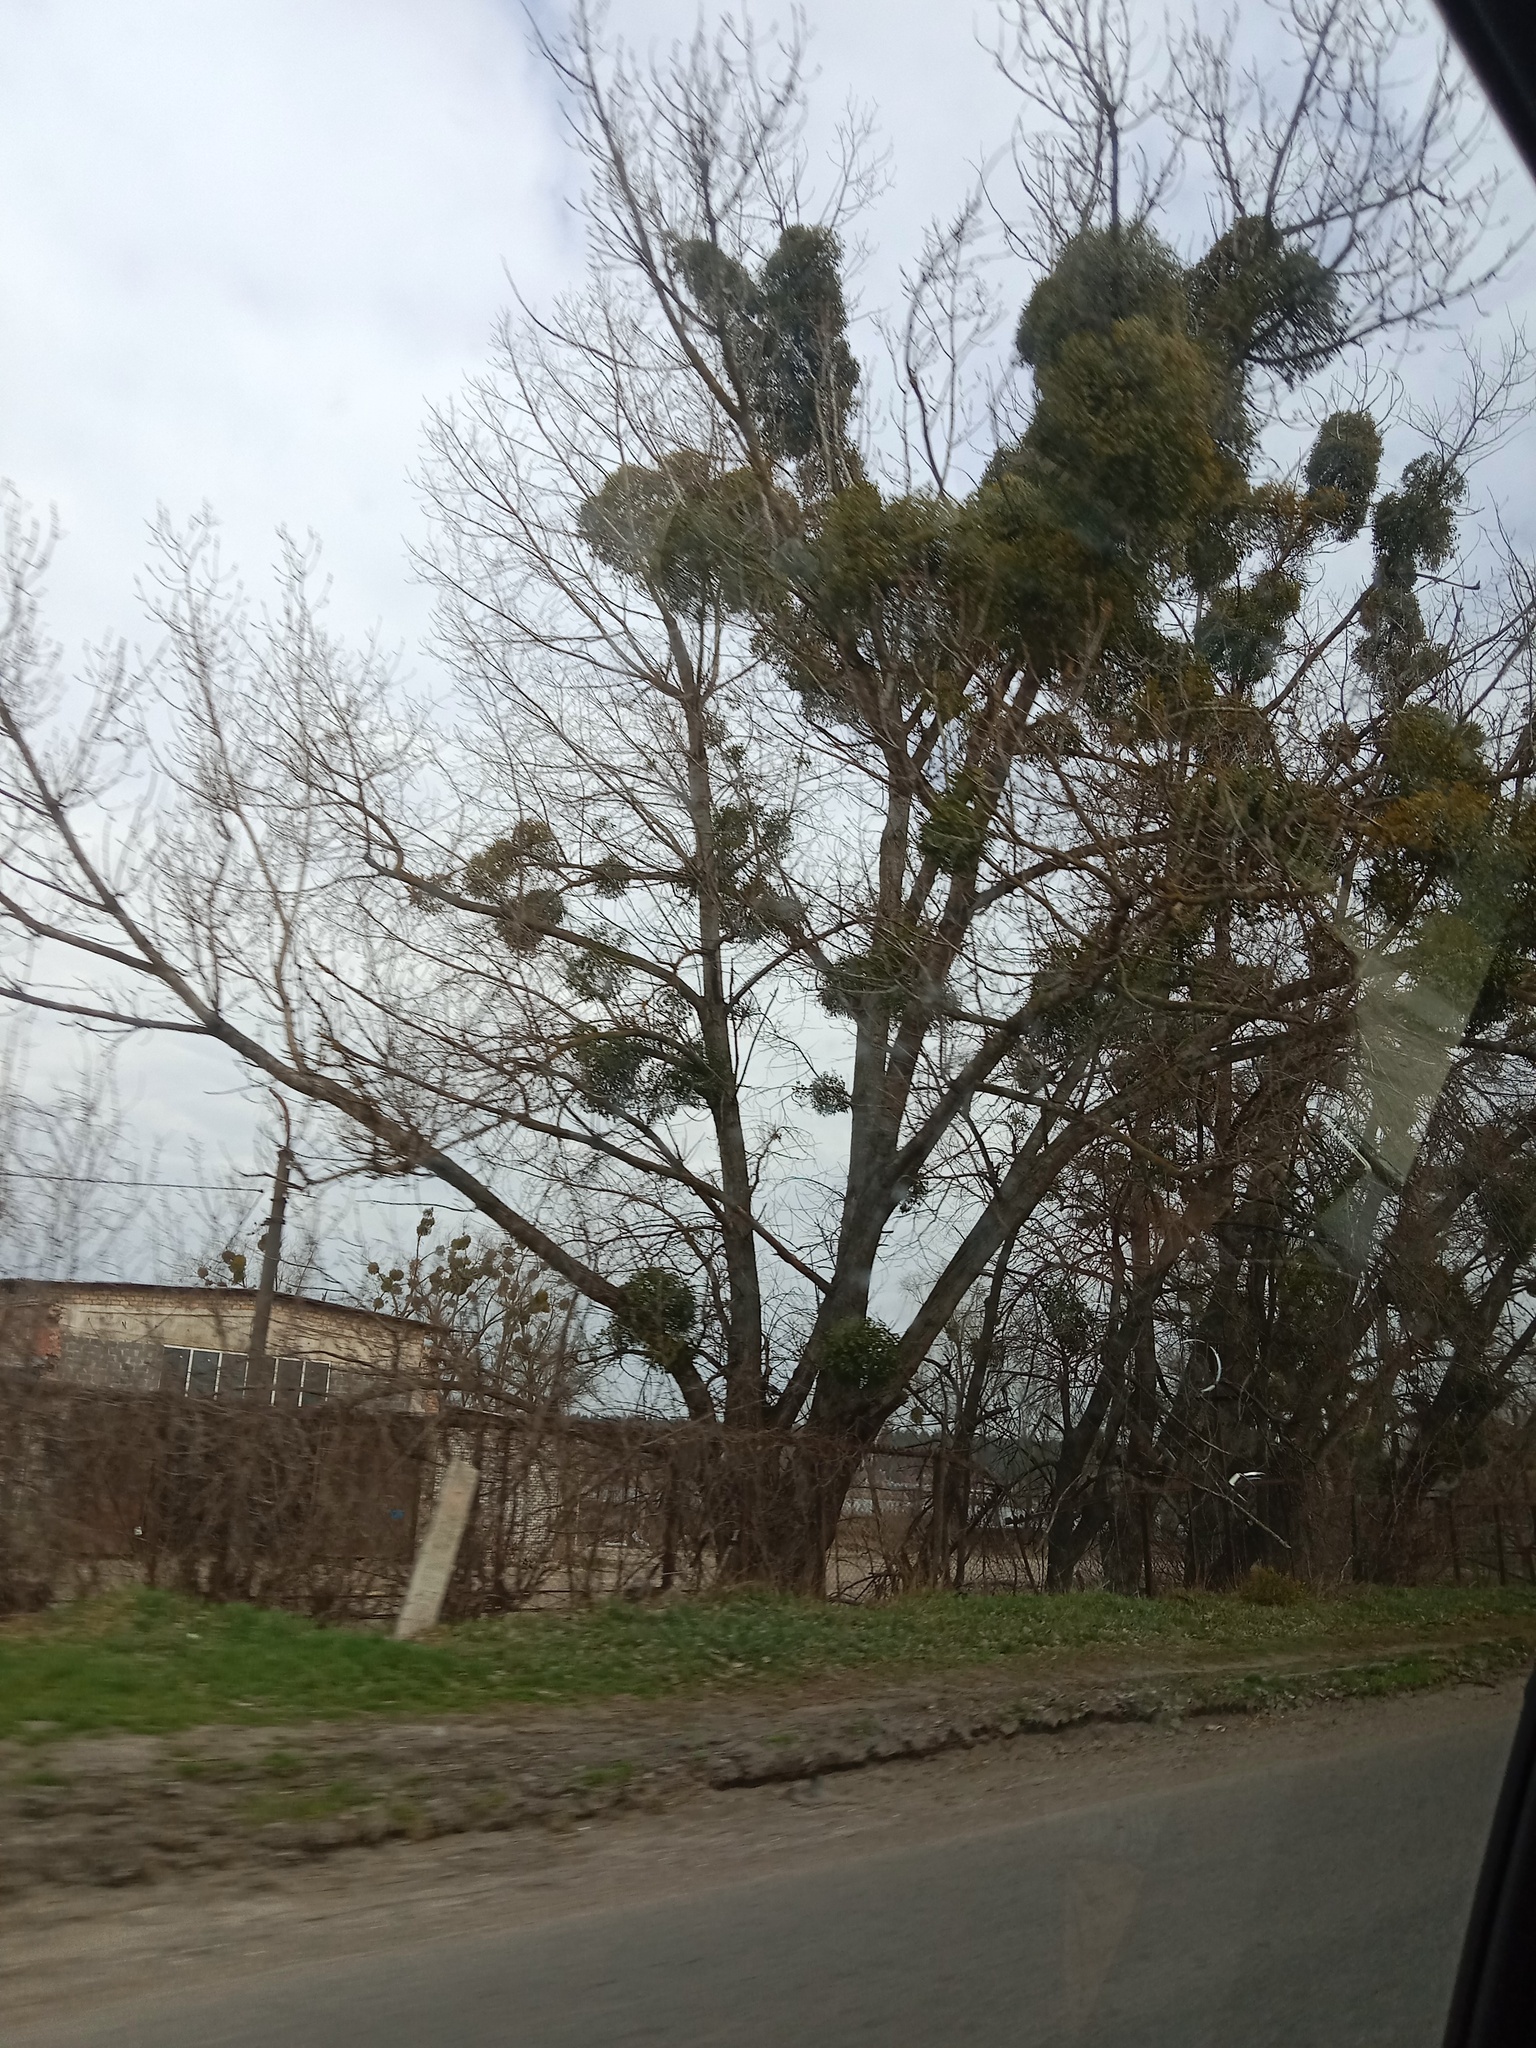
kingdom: Plantae
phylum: Tracheophyta
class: Magnoliopsida
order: Santalales
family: Viscaceae
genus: Viscum
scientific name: Viscum album
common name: Mistletoe
